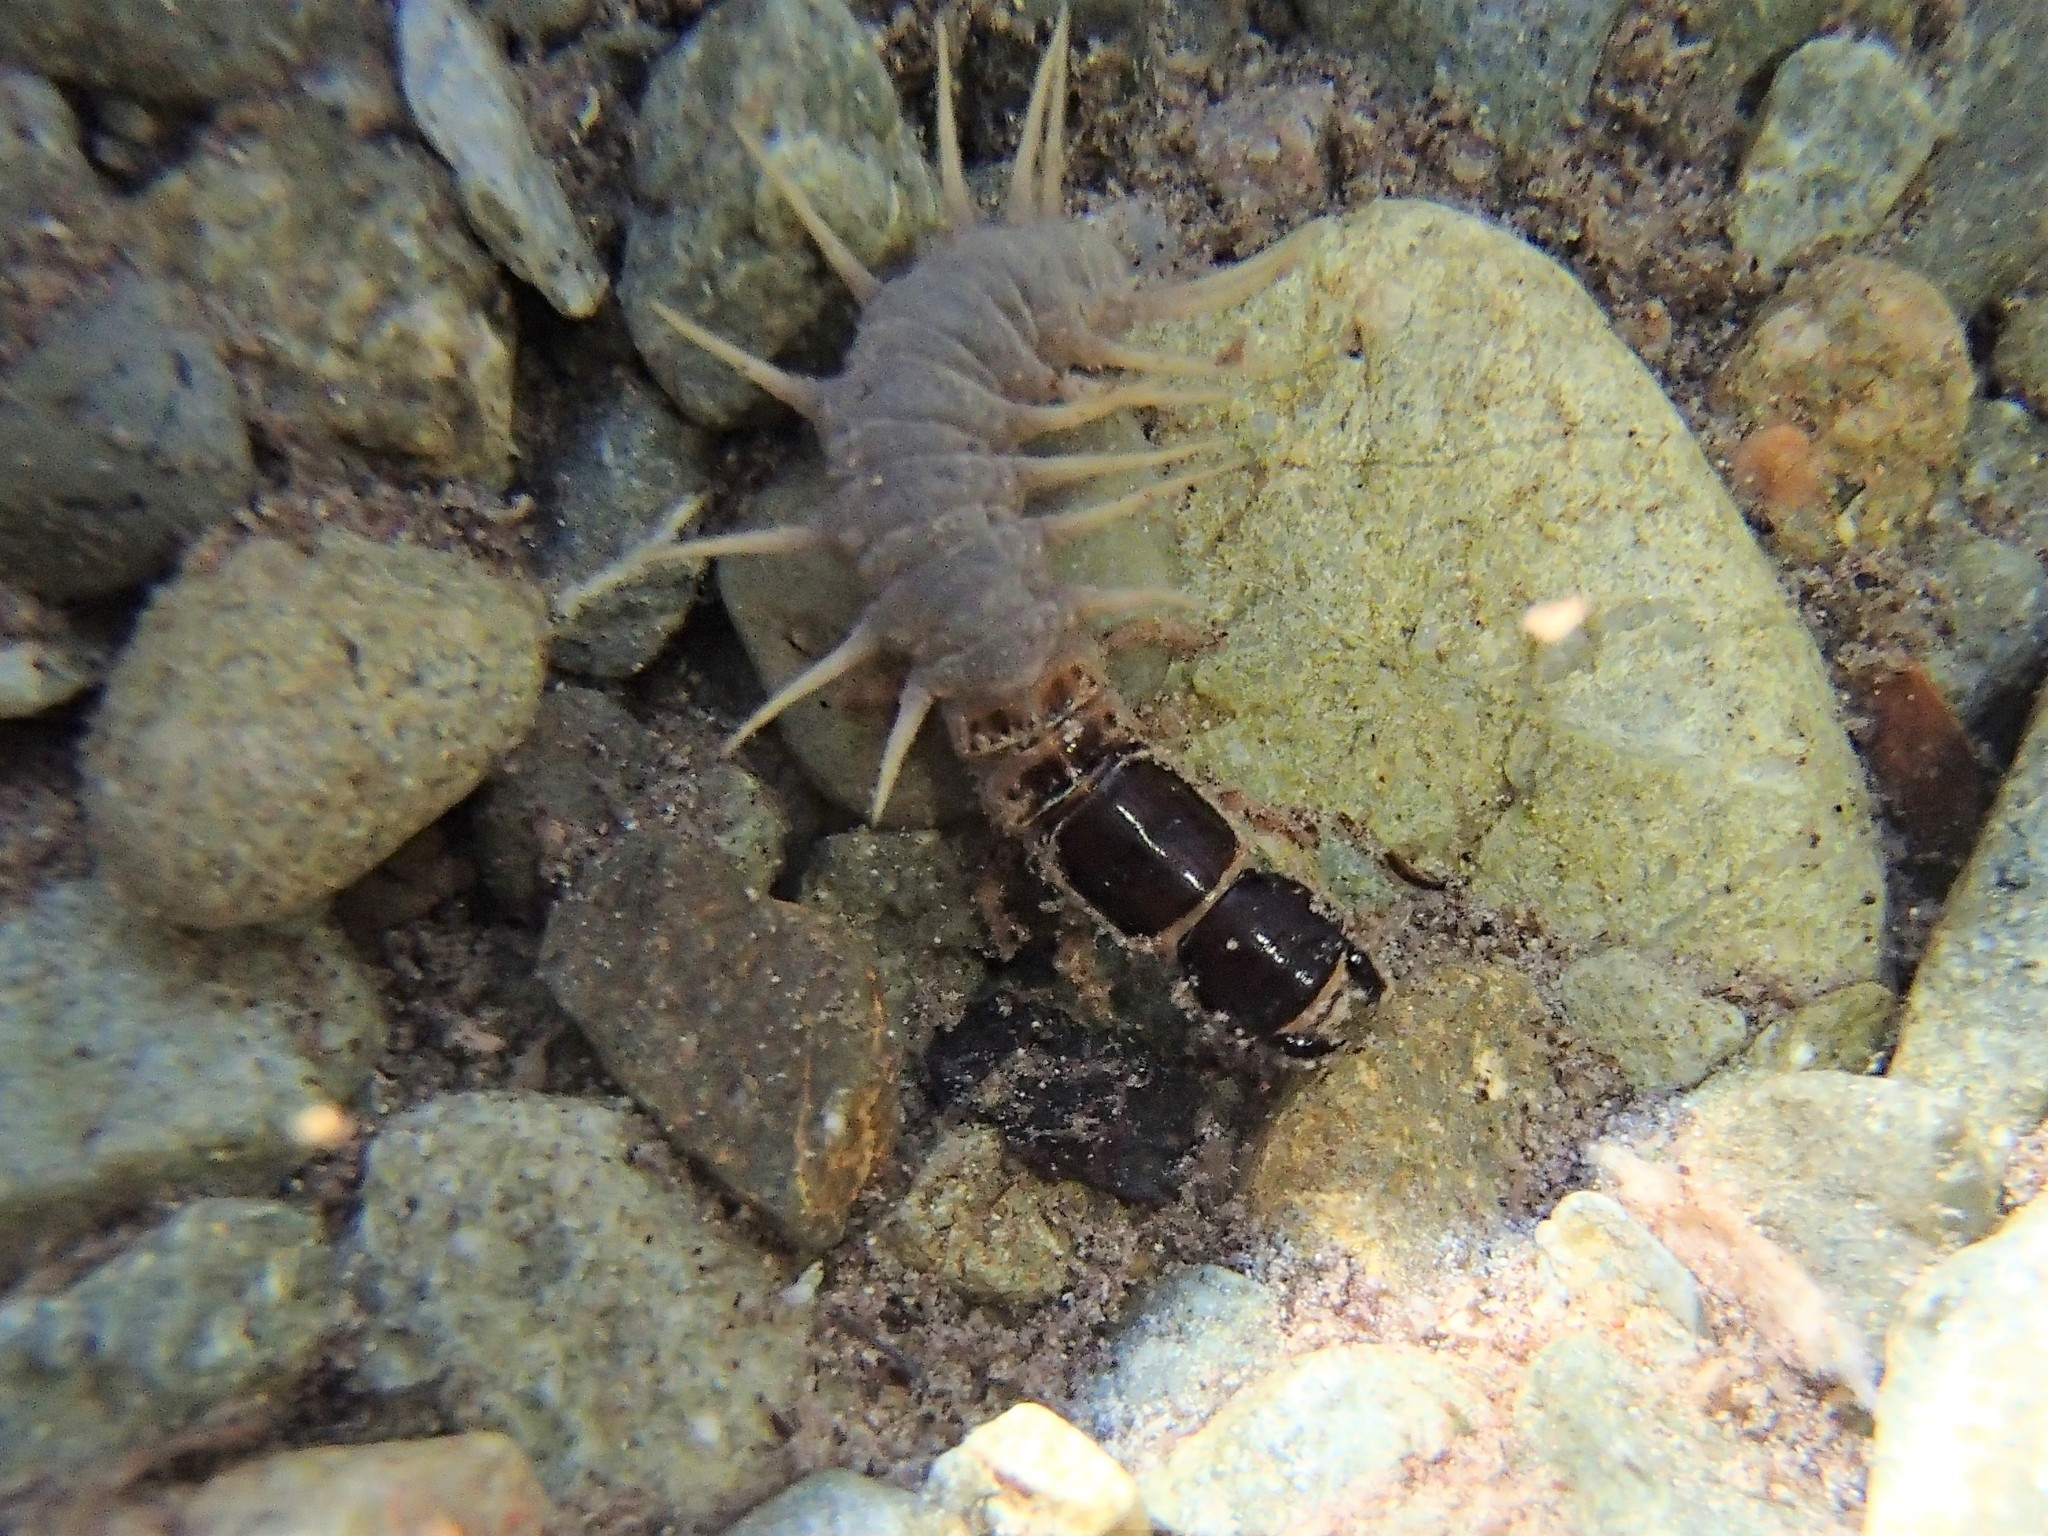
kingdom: Animalia
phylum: Arthropoda
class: Insecta
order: Megaloptera
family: Corydalidae
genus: Archichauliodes
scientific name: Archichauliodes diversus
